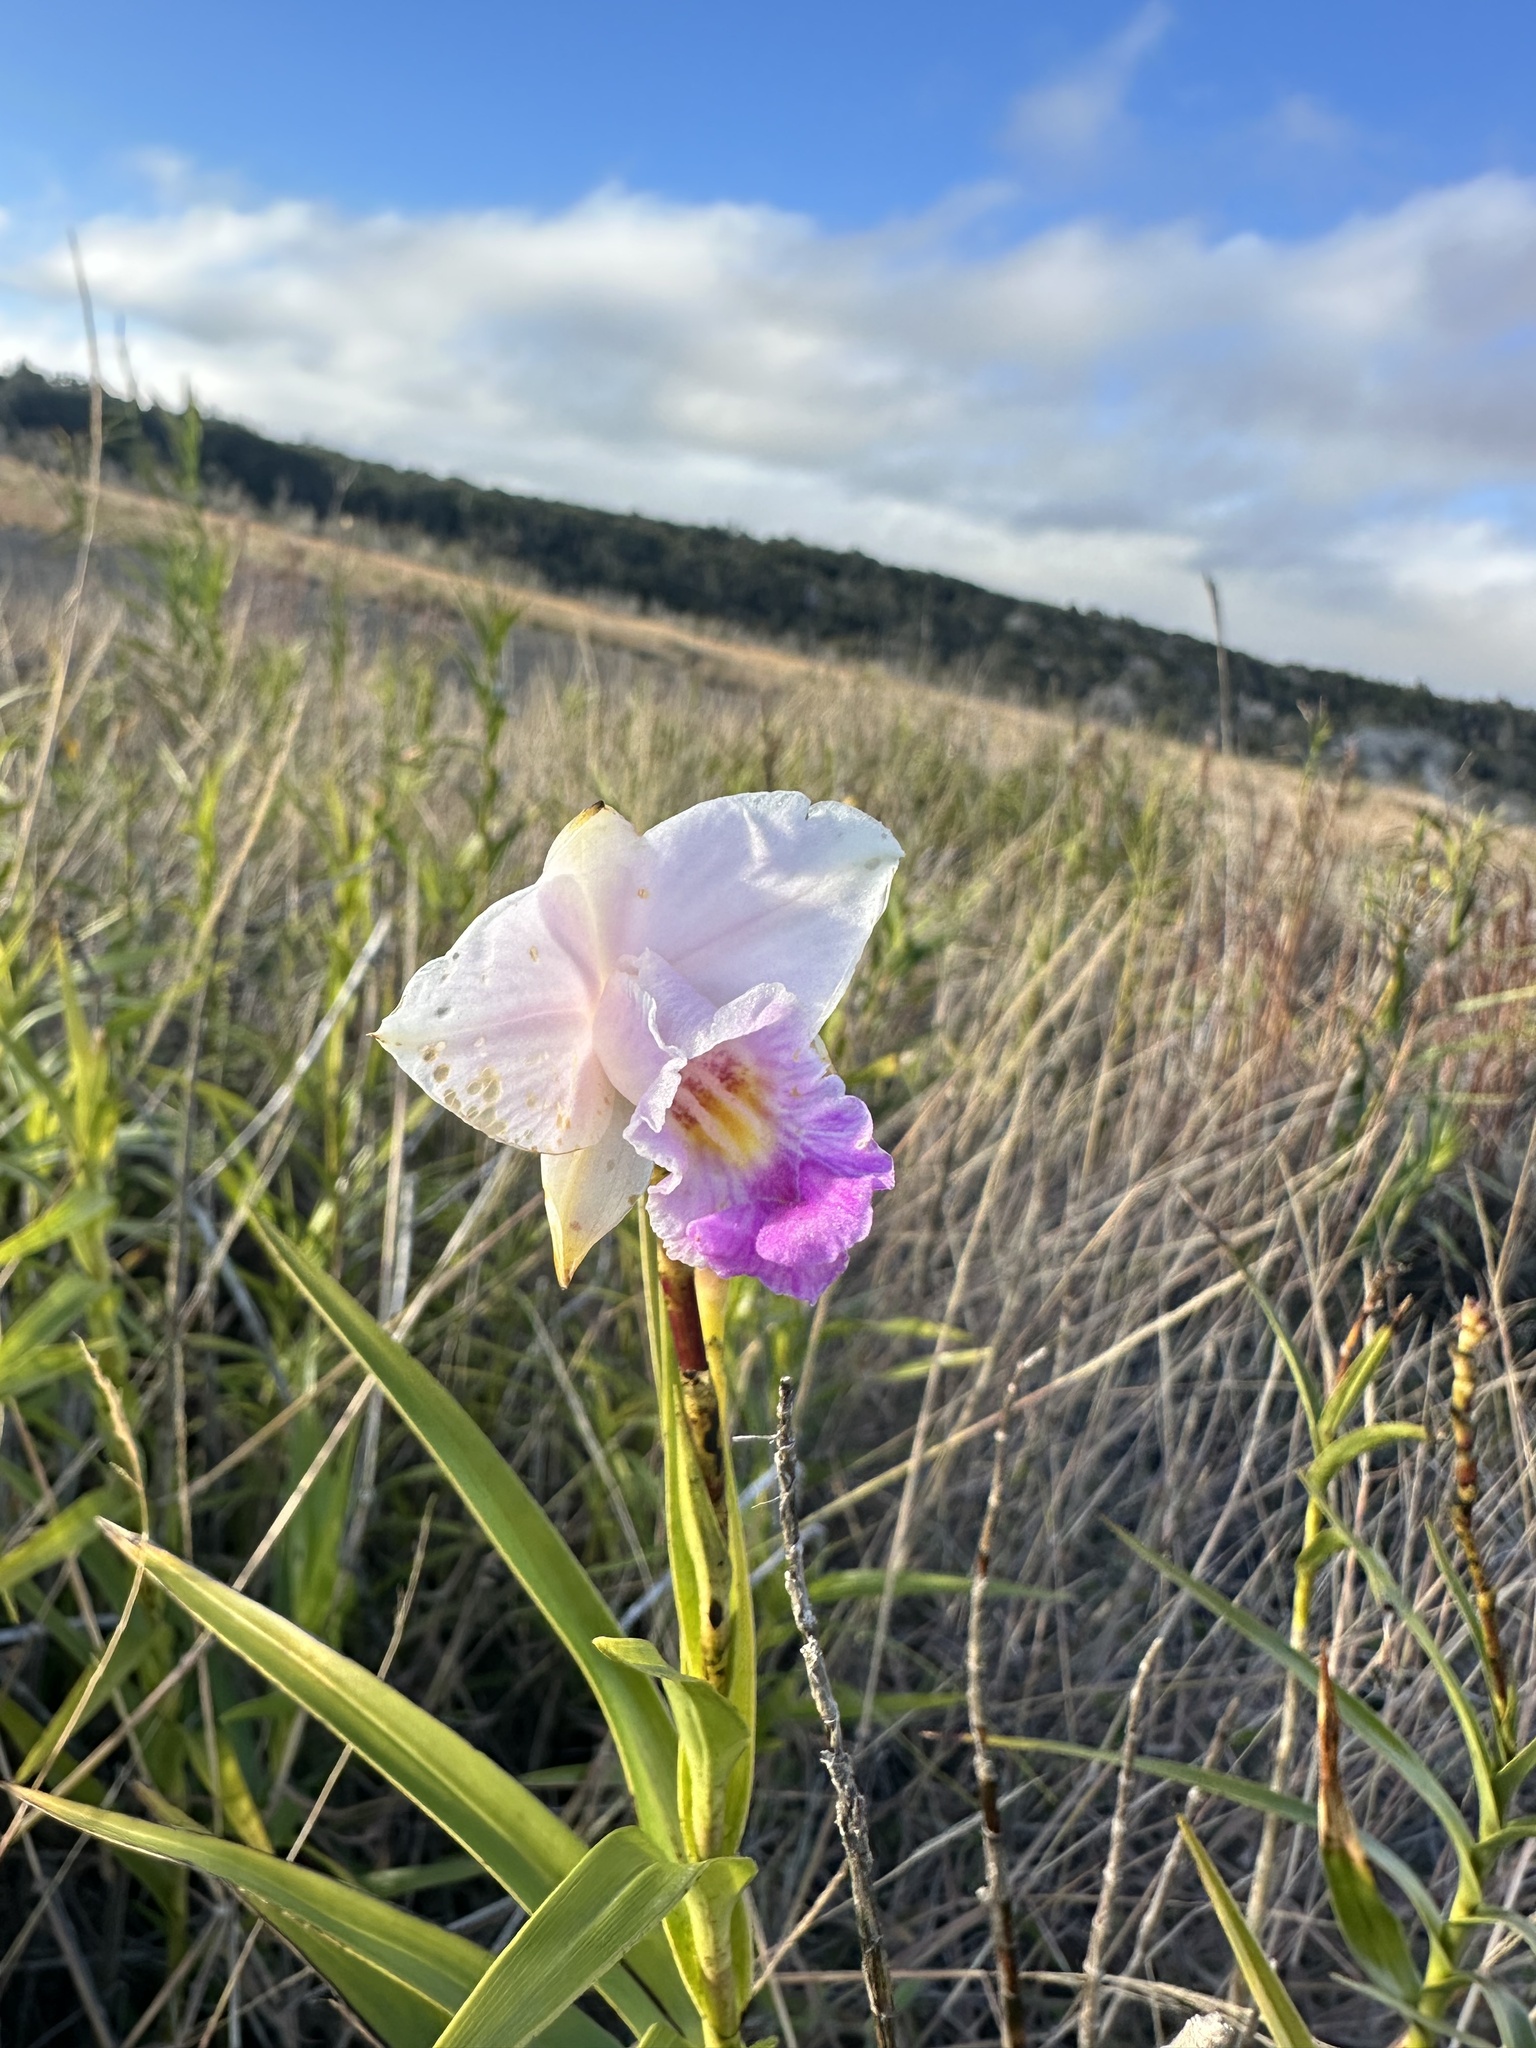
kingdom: Plantae
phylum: Tracheophyta
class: Liliopsida
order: Asparagales
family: Orchidaceae
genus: Arundina
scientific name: Arundina graminifolia
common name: Bamboo orchid
